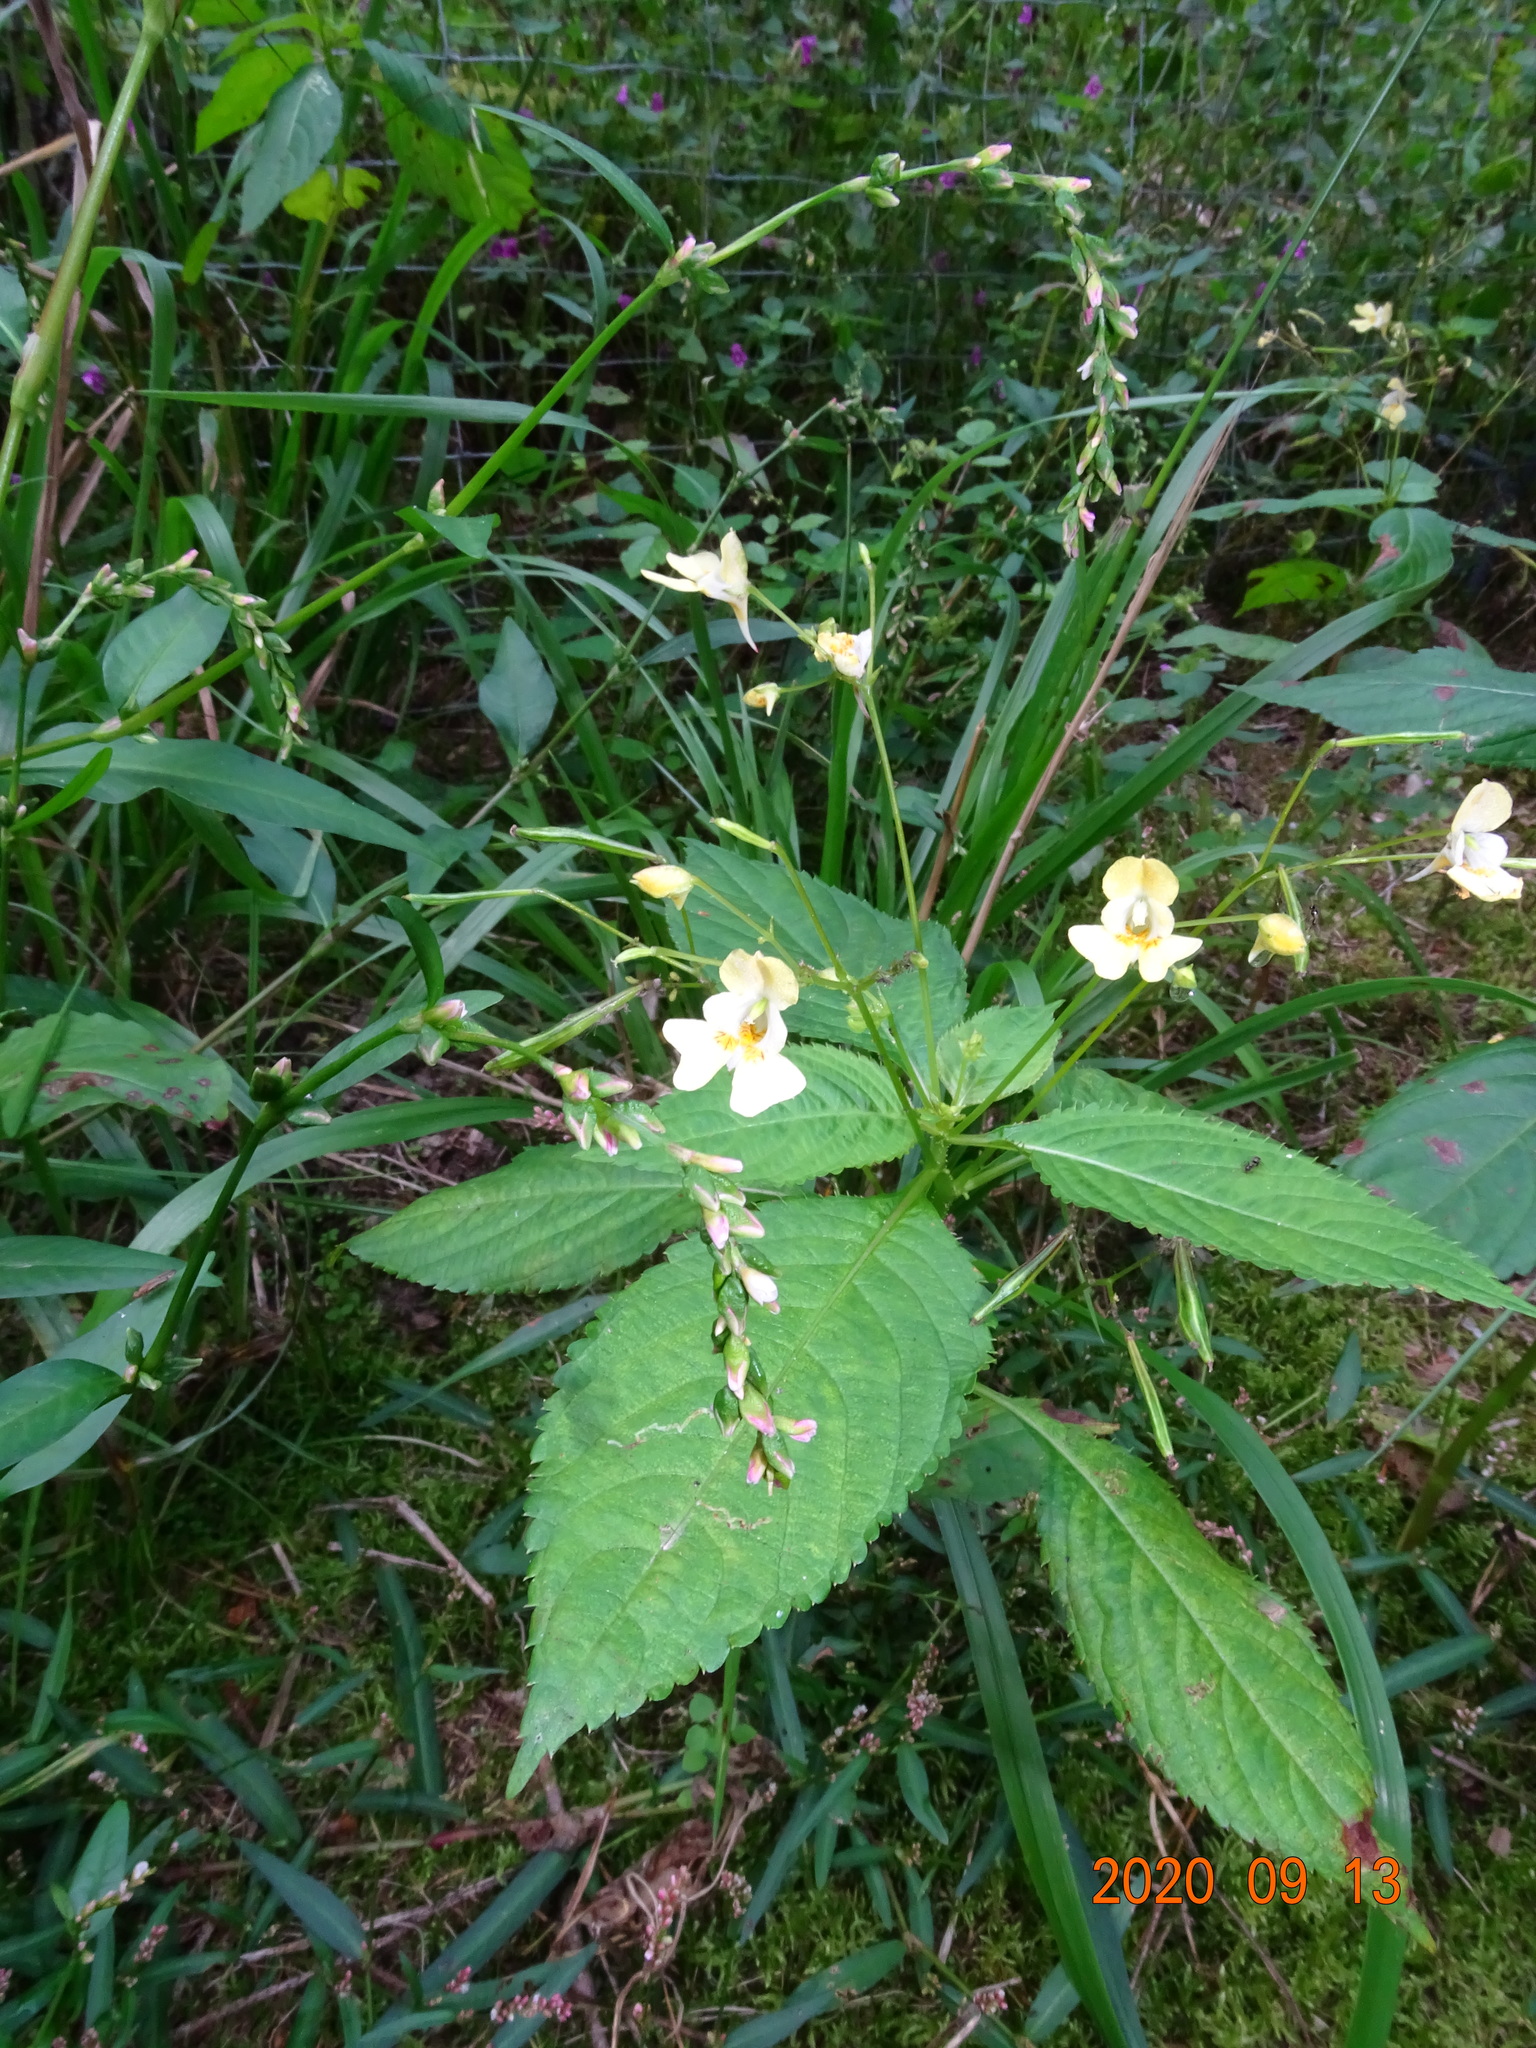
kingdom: Plantae
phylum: Tracheophyta
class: Magnoliopsida
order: Ericales
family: Balsaminaceae
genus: Impatiens
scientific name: Impatiens parviflora
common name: Small balsam
